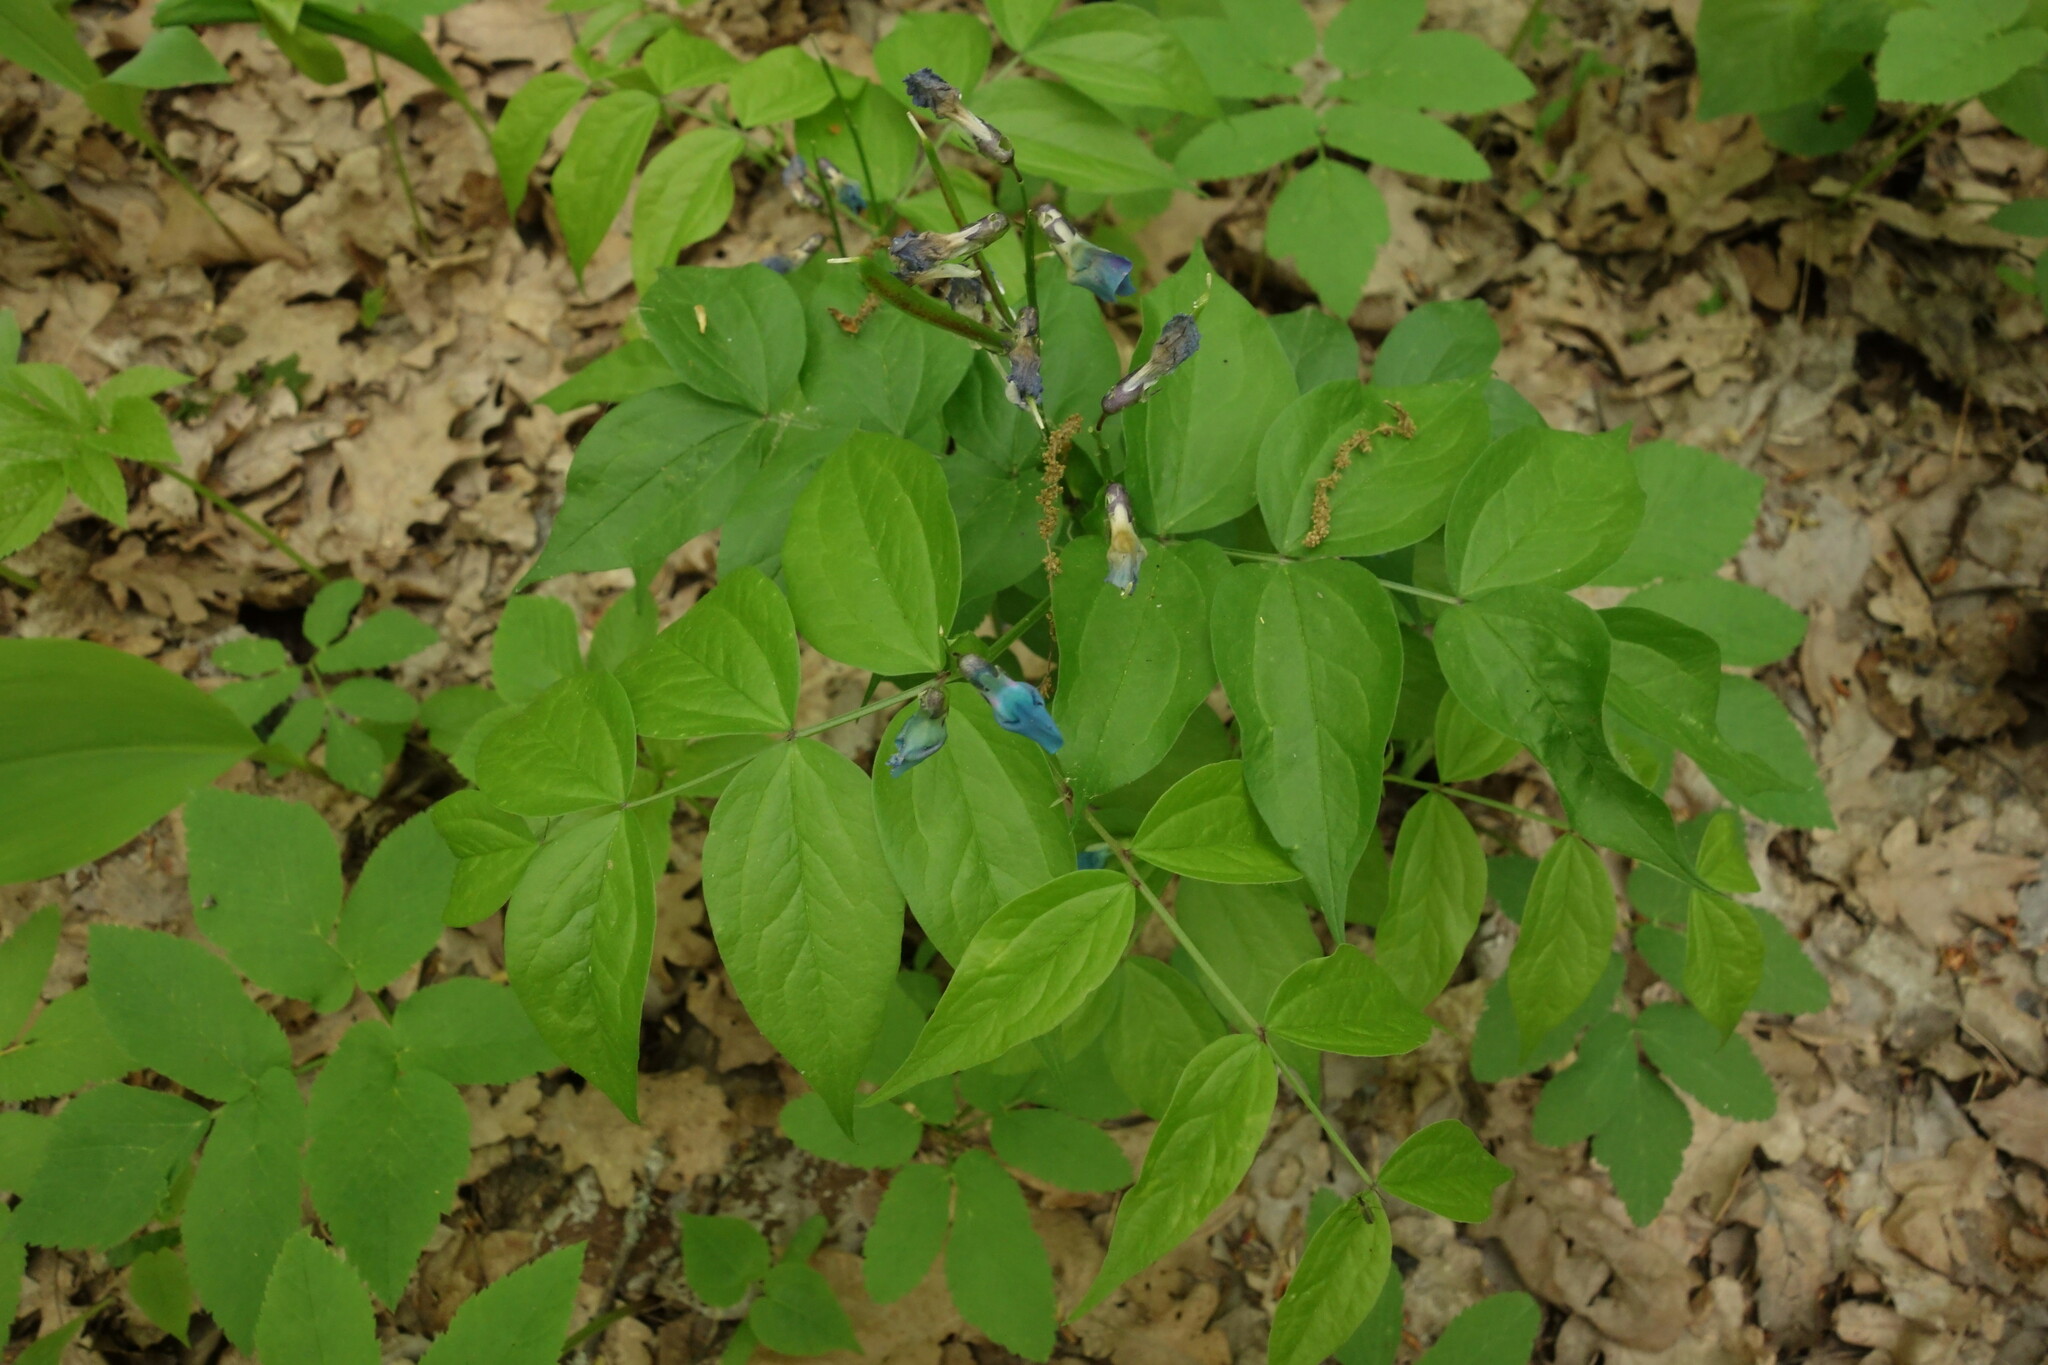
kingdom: Plantae
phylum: Tracheophyta
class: Magnoliopsida
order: Fabales
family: Fabaceae
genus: Lathyrus
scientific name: Lathyrus vernus
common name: Spring pea
